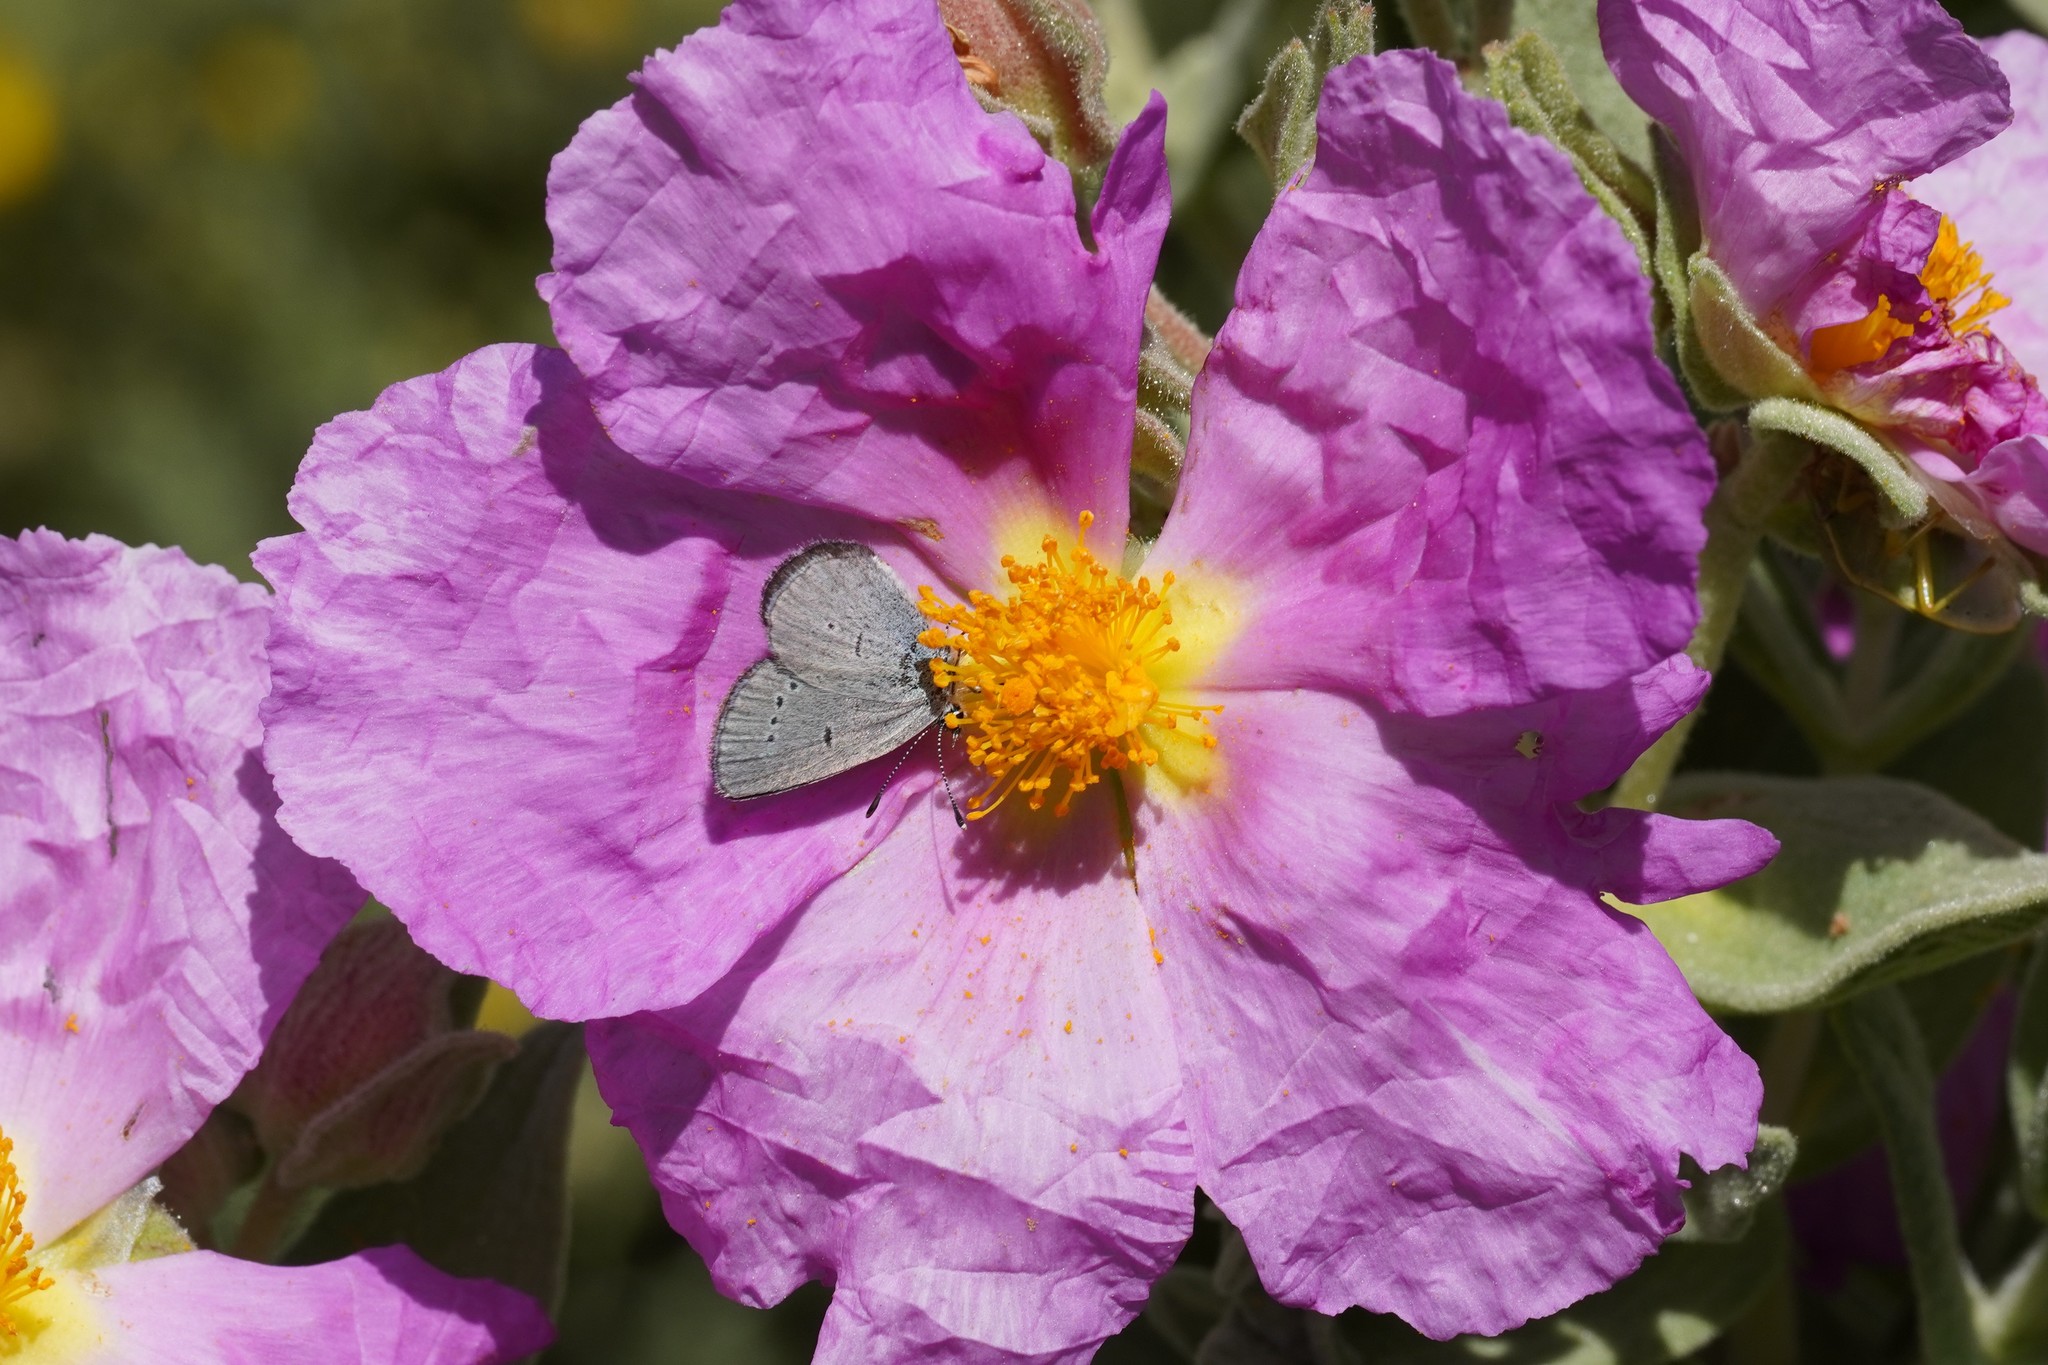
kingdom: Animalia
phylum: Arthropoda
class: Insecta
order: Lepidoptera
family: Lycaenidae
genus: Cupido
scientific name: Cupido lorquinii
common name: Lorquin’s blue
